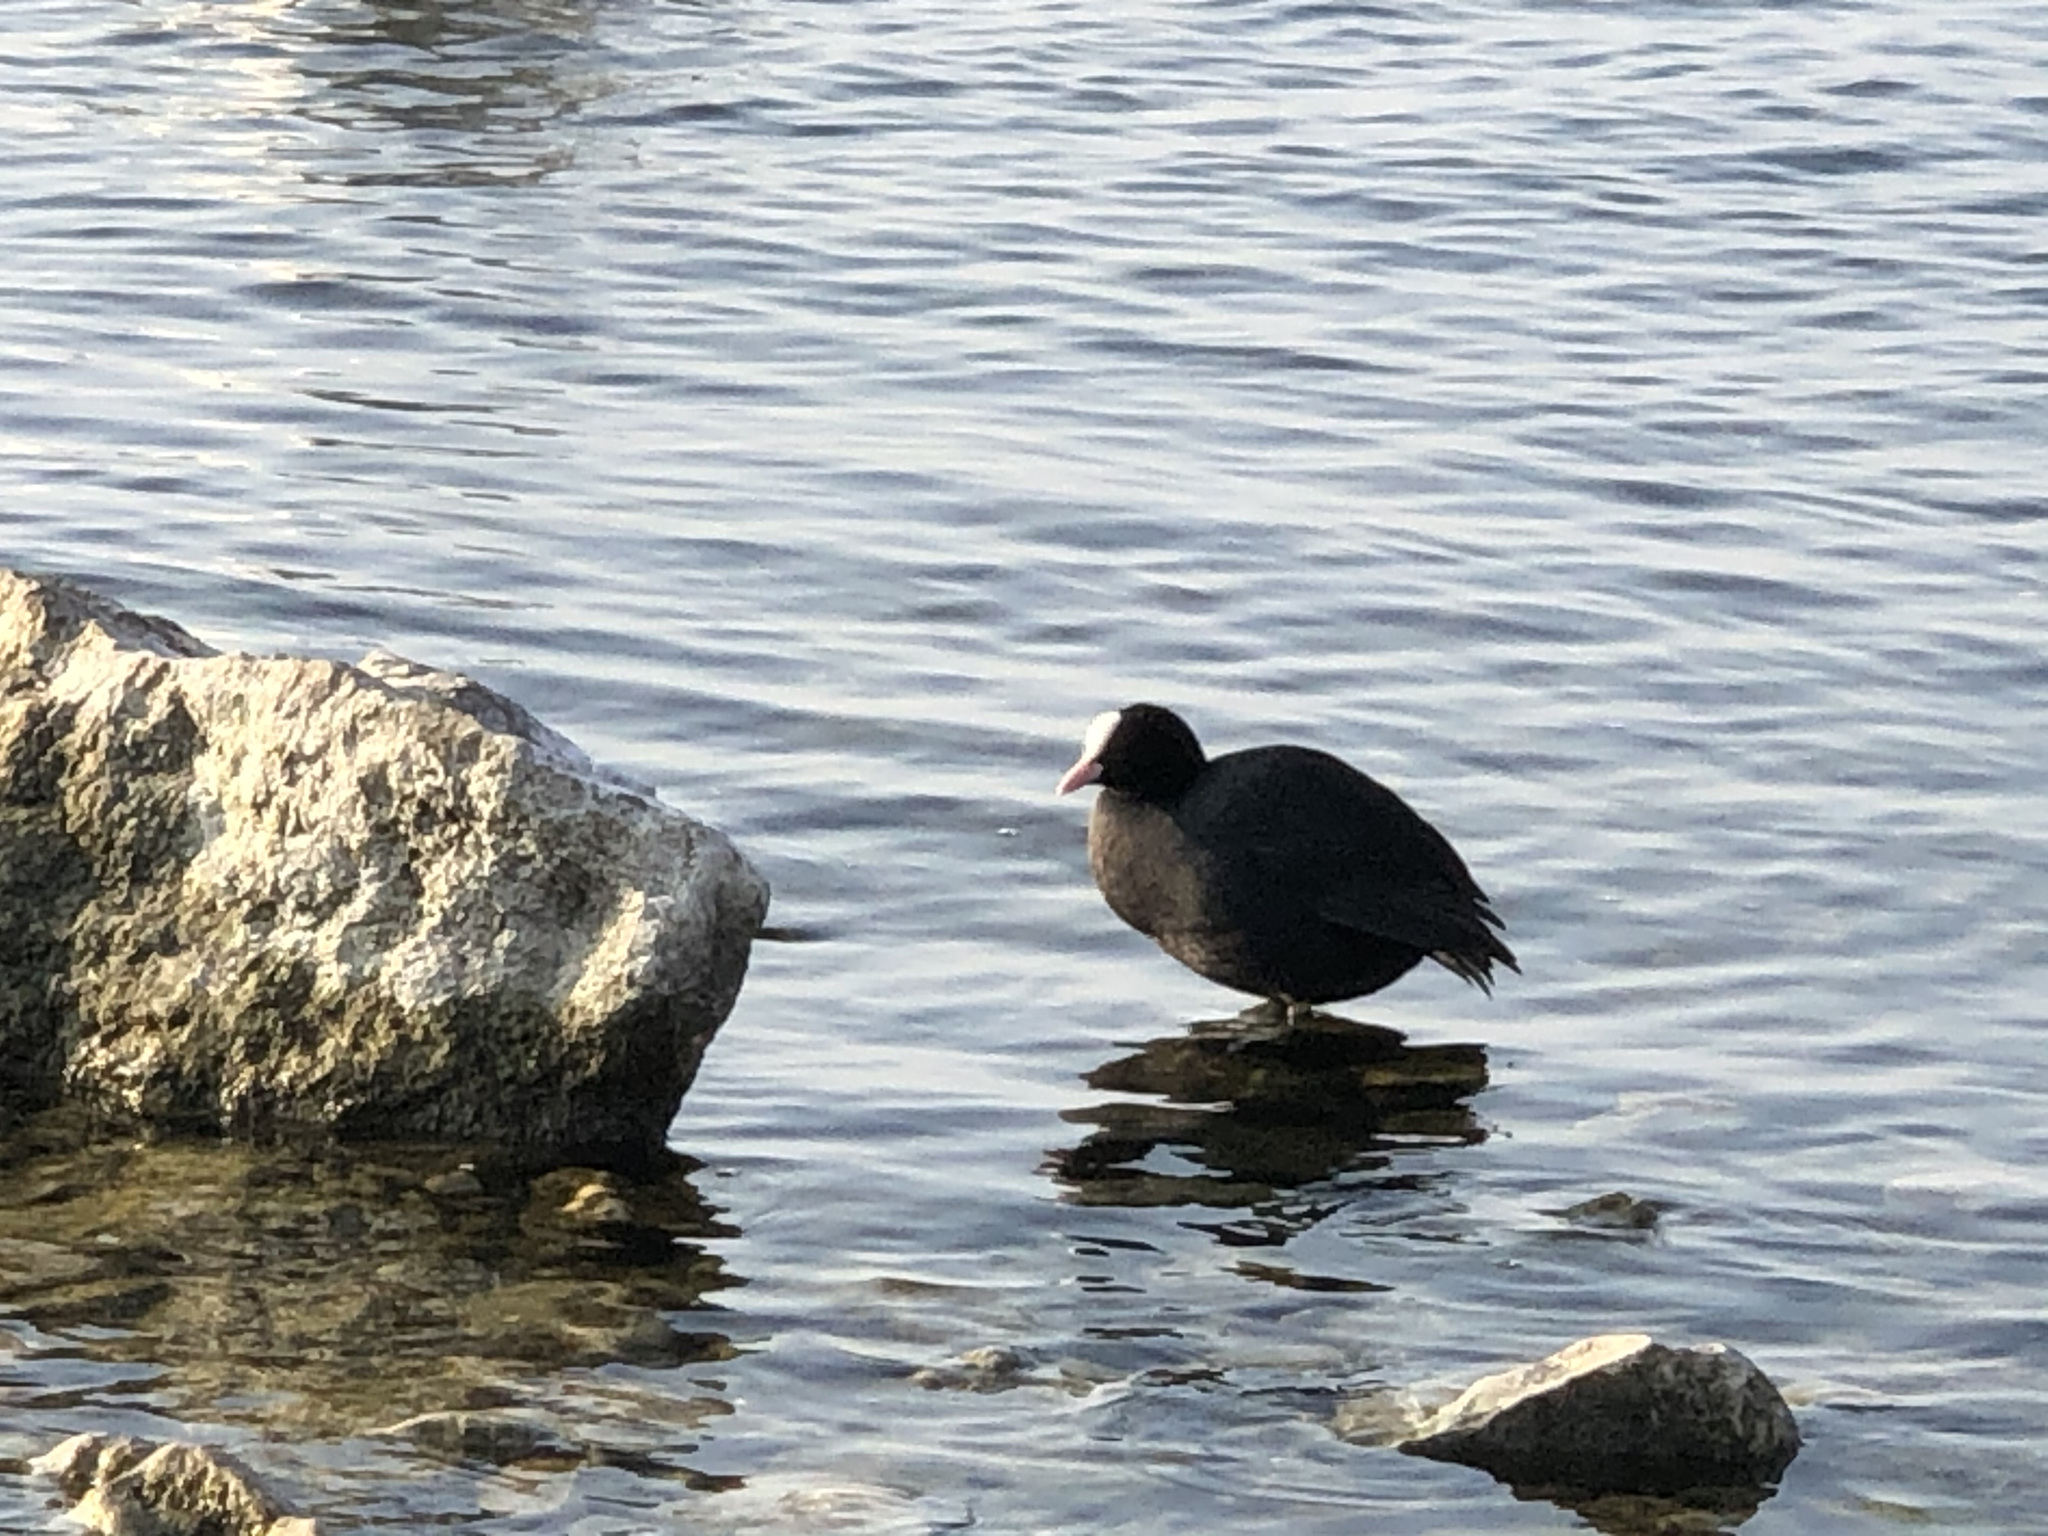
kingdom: Animalia
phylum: Chordata
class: Aves
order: Gruiformes
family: Rallidae
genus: Fulica
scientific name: Fulica atra
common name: Eurasian coot
